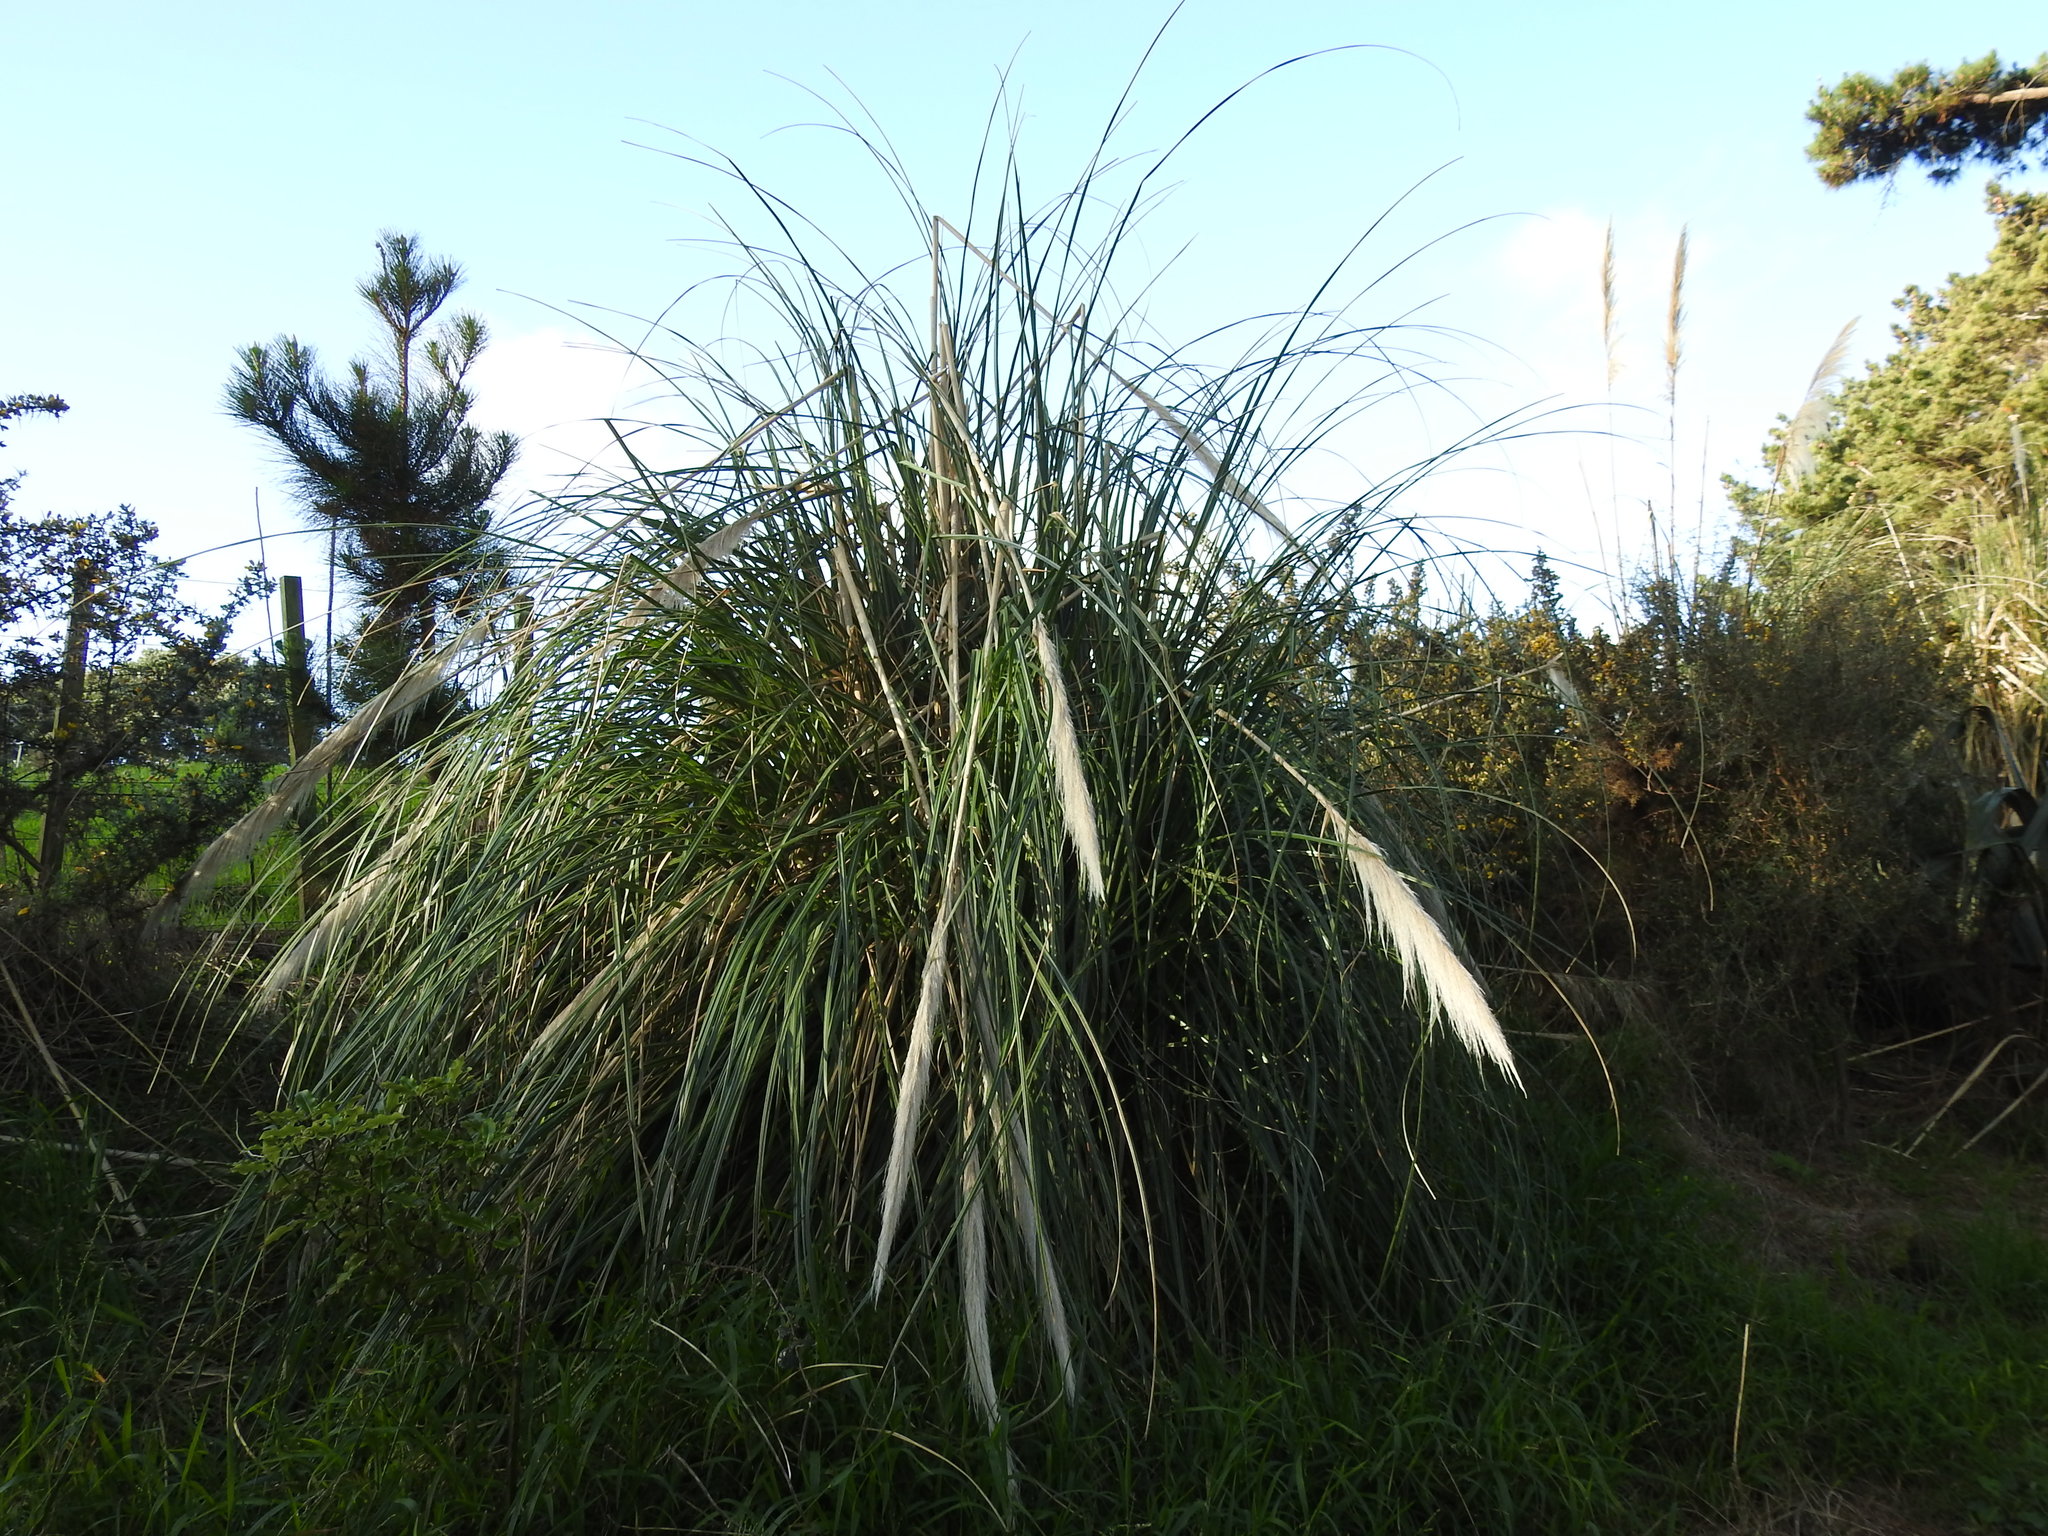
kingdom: Plantae
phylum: Tracheophyta
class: Liliopsida
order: Poales
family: Poaceae
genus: Cortaderia
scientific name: Cortaderia selloana
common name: Uruguayan pampas grass
